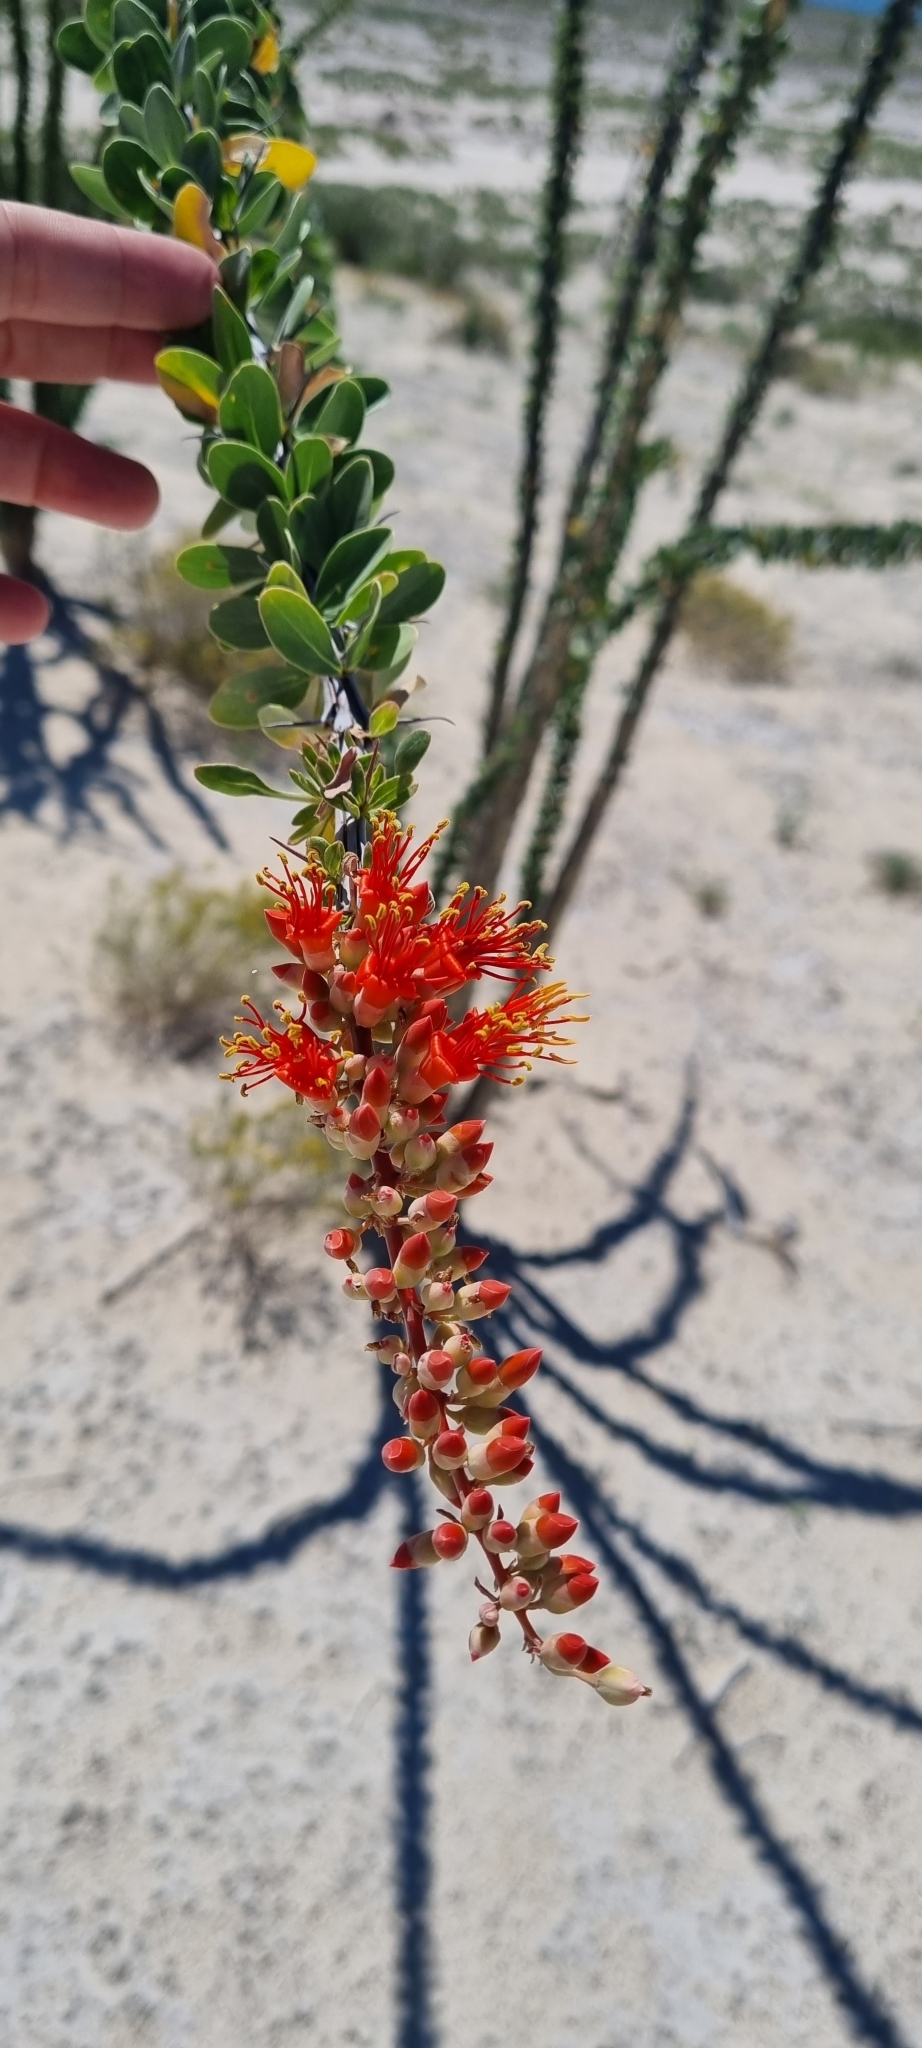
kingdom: Plantae
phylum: Tracheophyta
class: Magnoliopsida
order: Ericales
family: Fouquieriaceae
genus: Fouquieria
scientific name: Fouquieria splendens
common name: Vine-cactus
